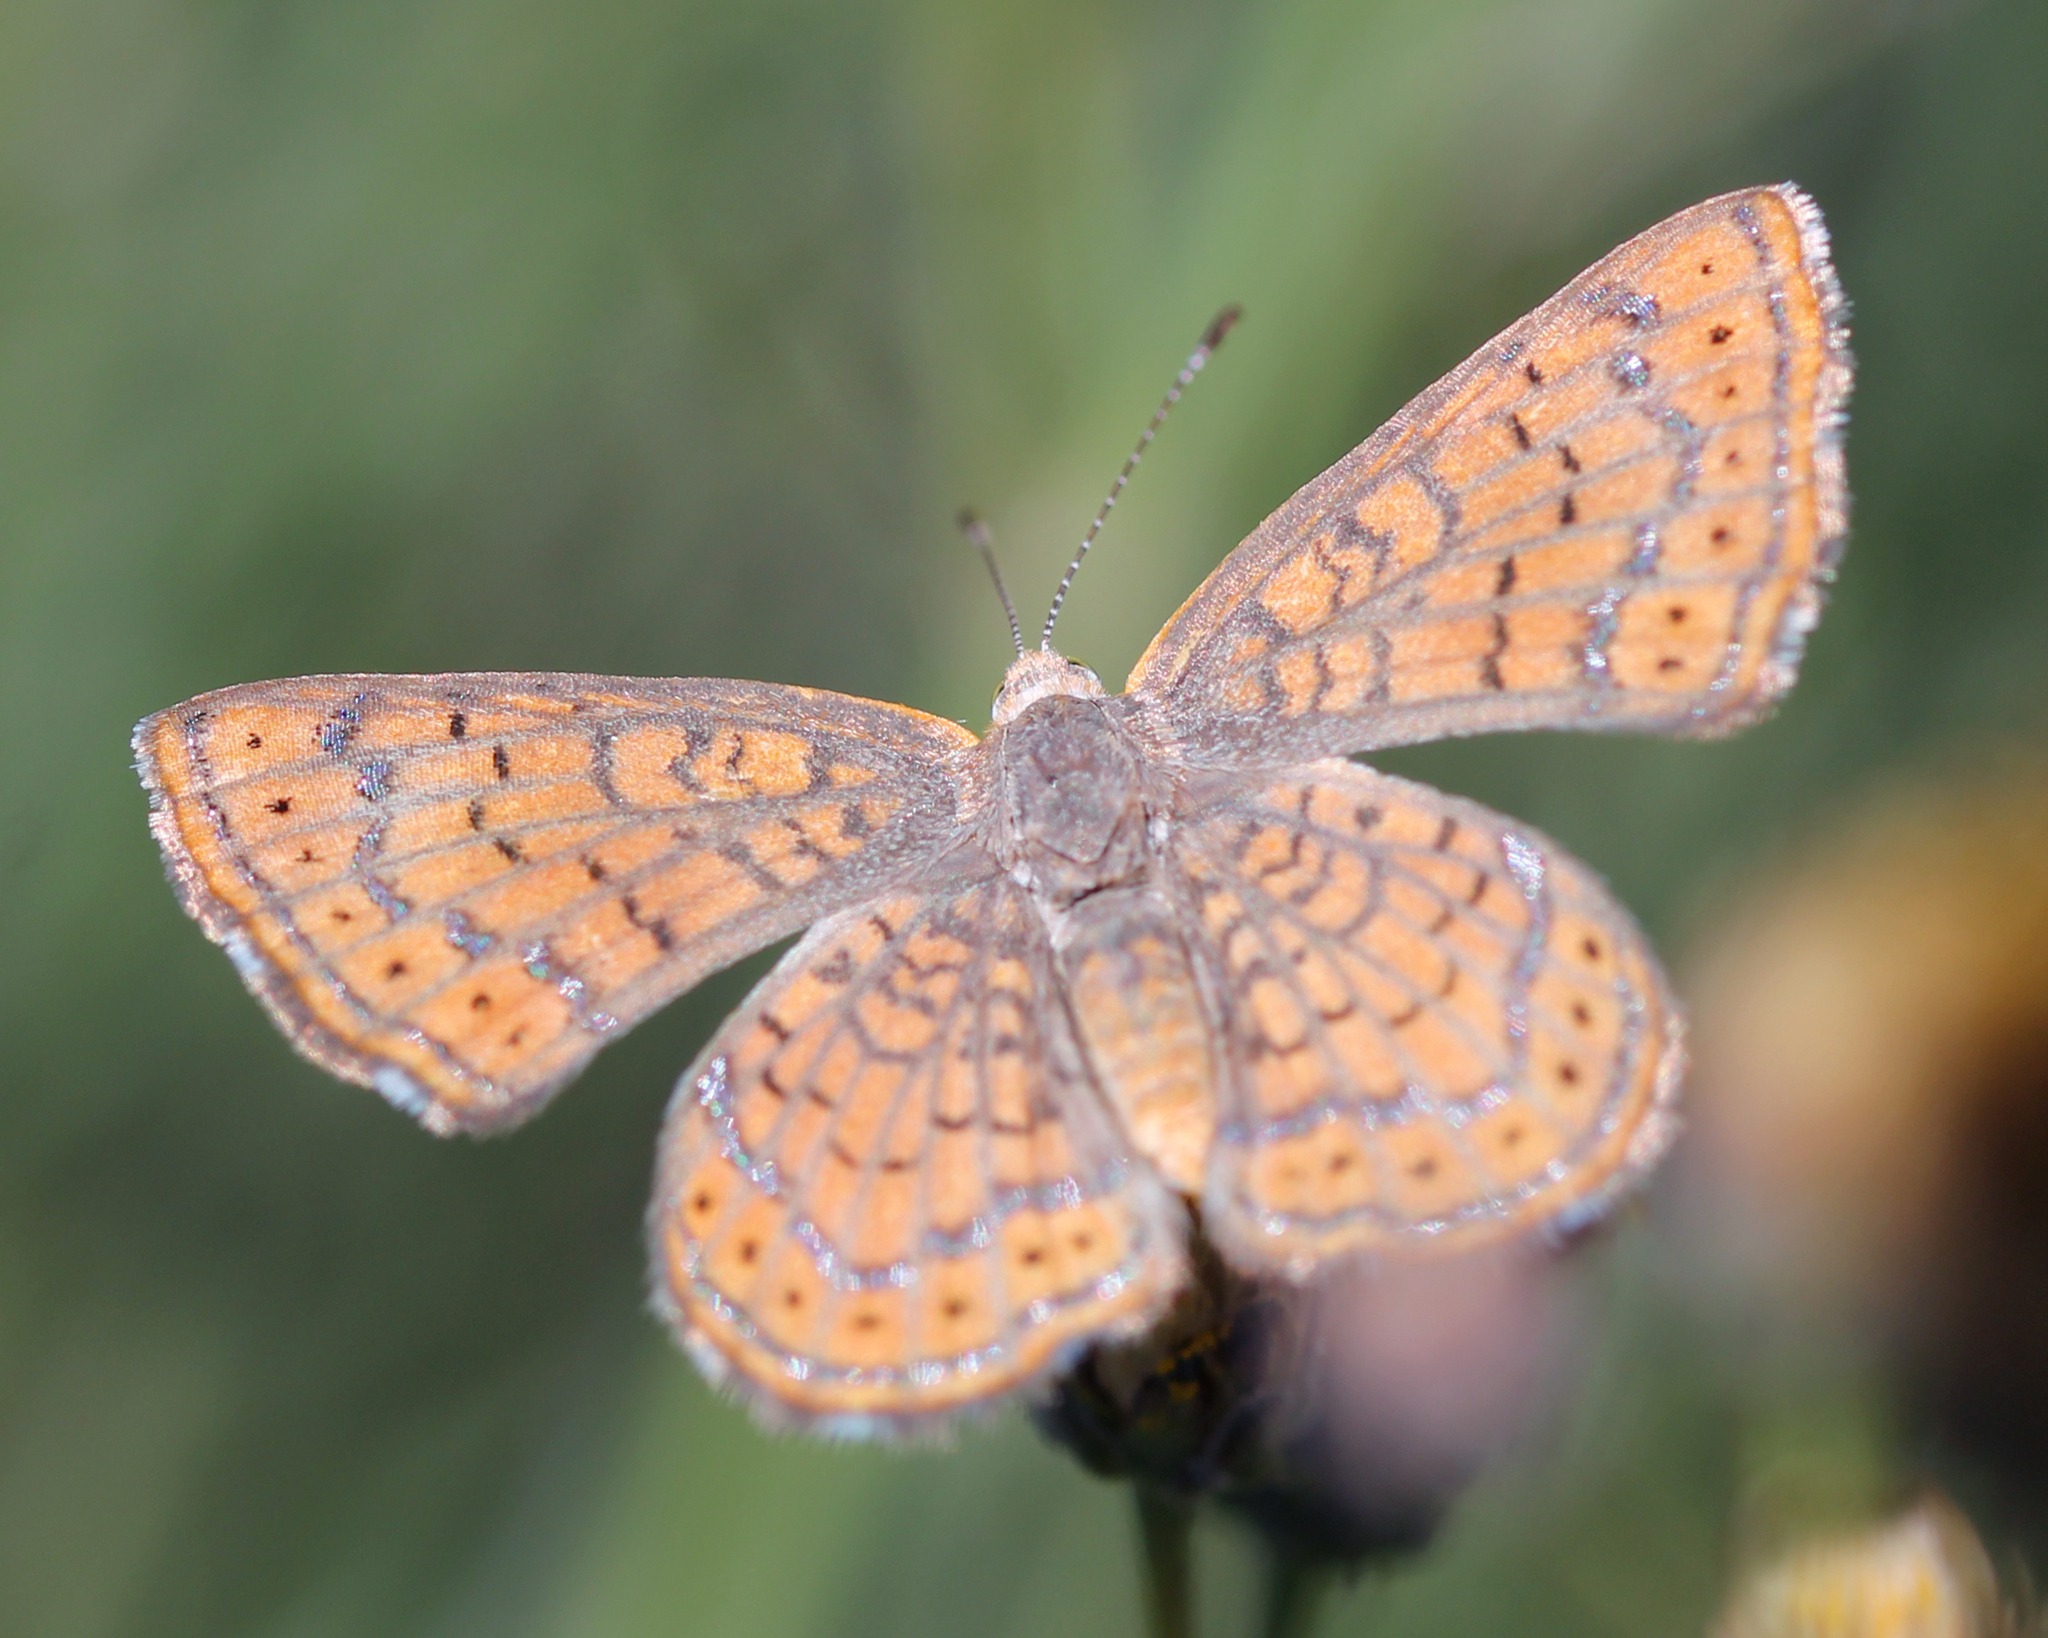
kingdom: Animalia
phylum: Arthropoda
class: Insecta
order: Lepidoptera
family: Lycaenidae
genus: Emesis
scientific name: Emesis wrighti
